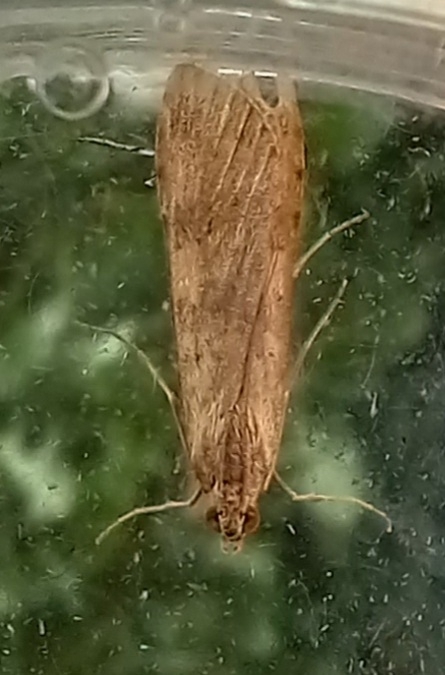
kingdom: Animalia
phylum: Arthropoda
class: Insecta
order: Lepidoptera
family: Crambidae
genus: Nomophila
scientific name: Nomophila noctuella
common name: Rush veneer
